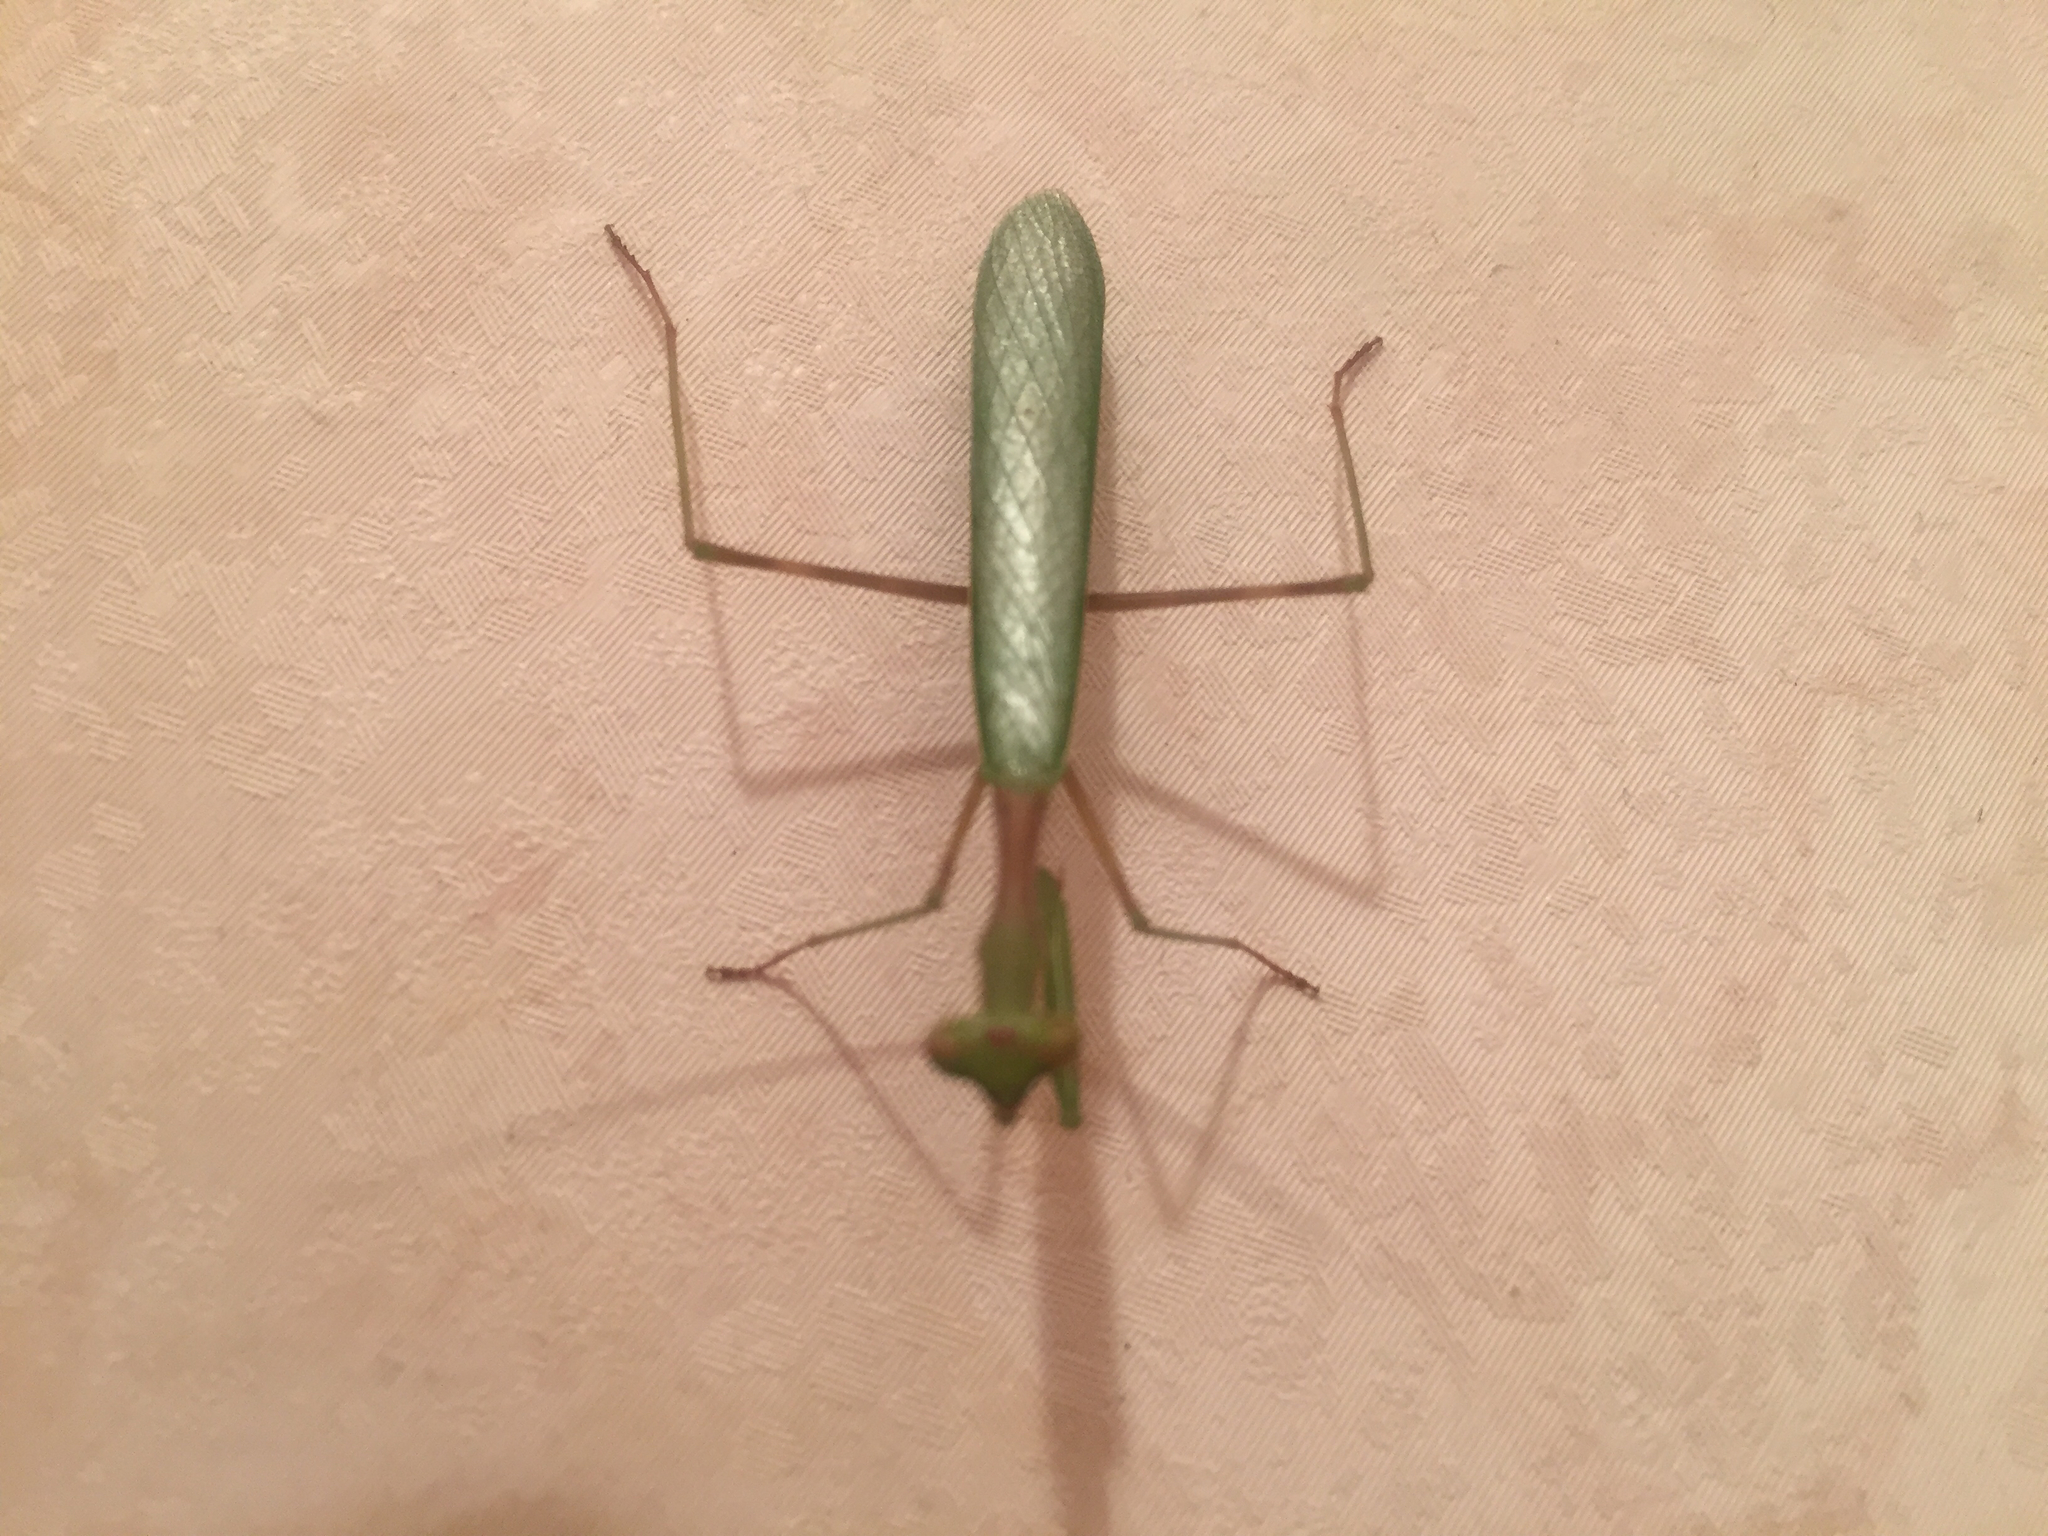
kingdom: Animalia
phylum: Arthropoda
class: Insecta
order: Mantodea
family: Miomantidae
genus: Miomantis
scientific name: Miomantis caffra
